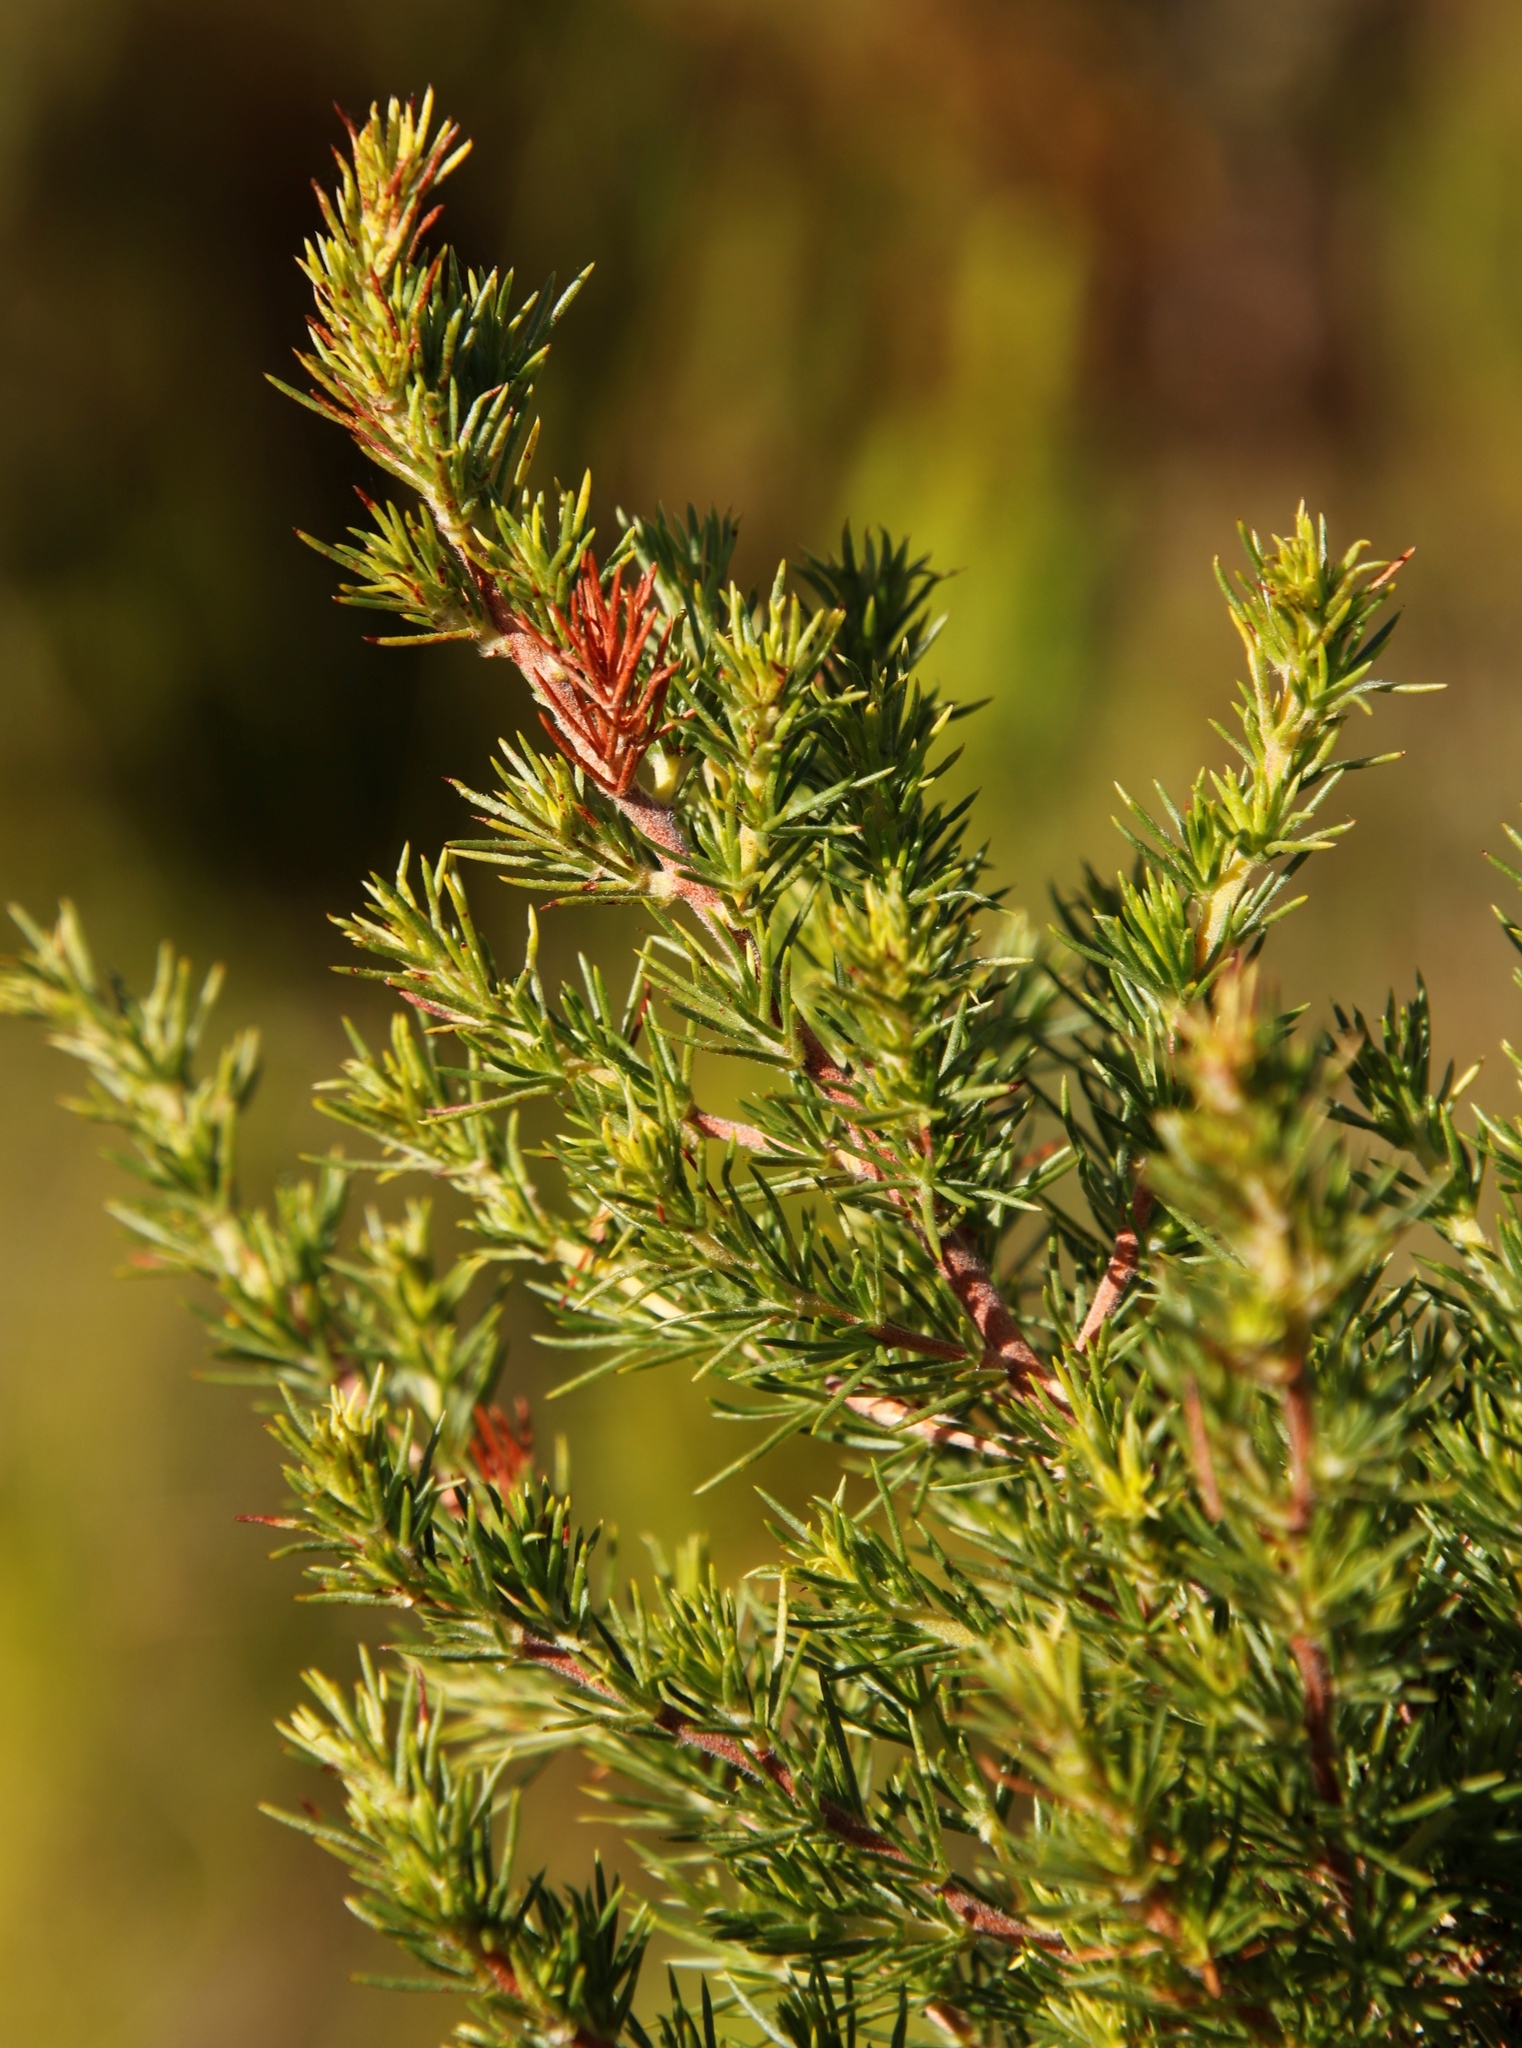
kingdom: Plantae
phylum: Tracheophyta
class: Magnoliopsida
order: Rosales
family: Rosaceae
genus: Cliffortia
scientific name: Cliffortia juniperina
